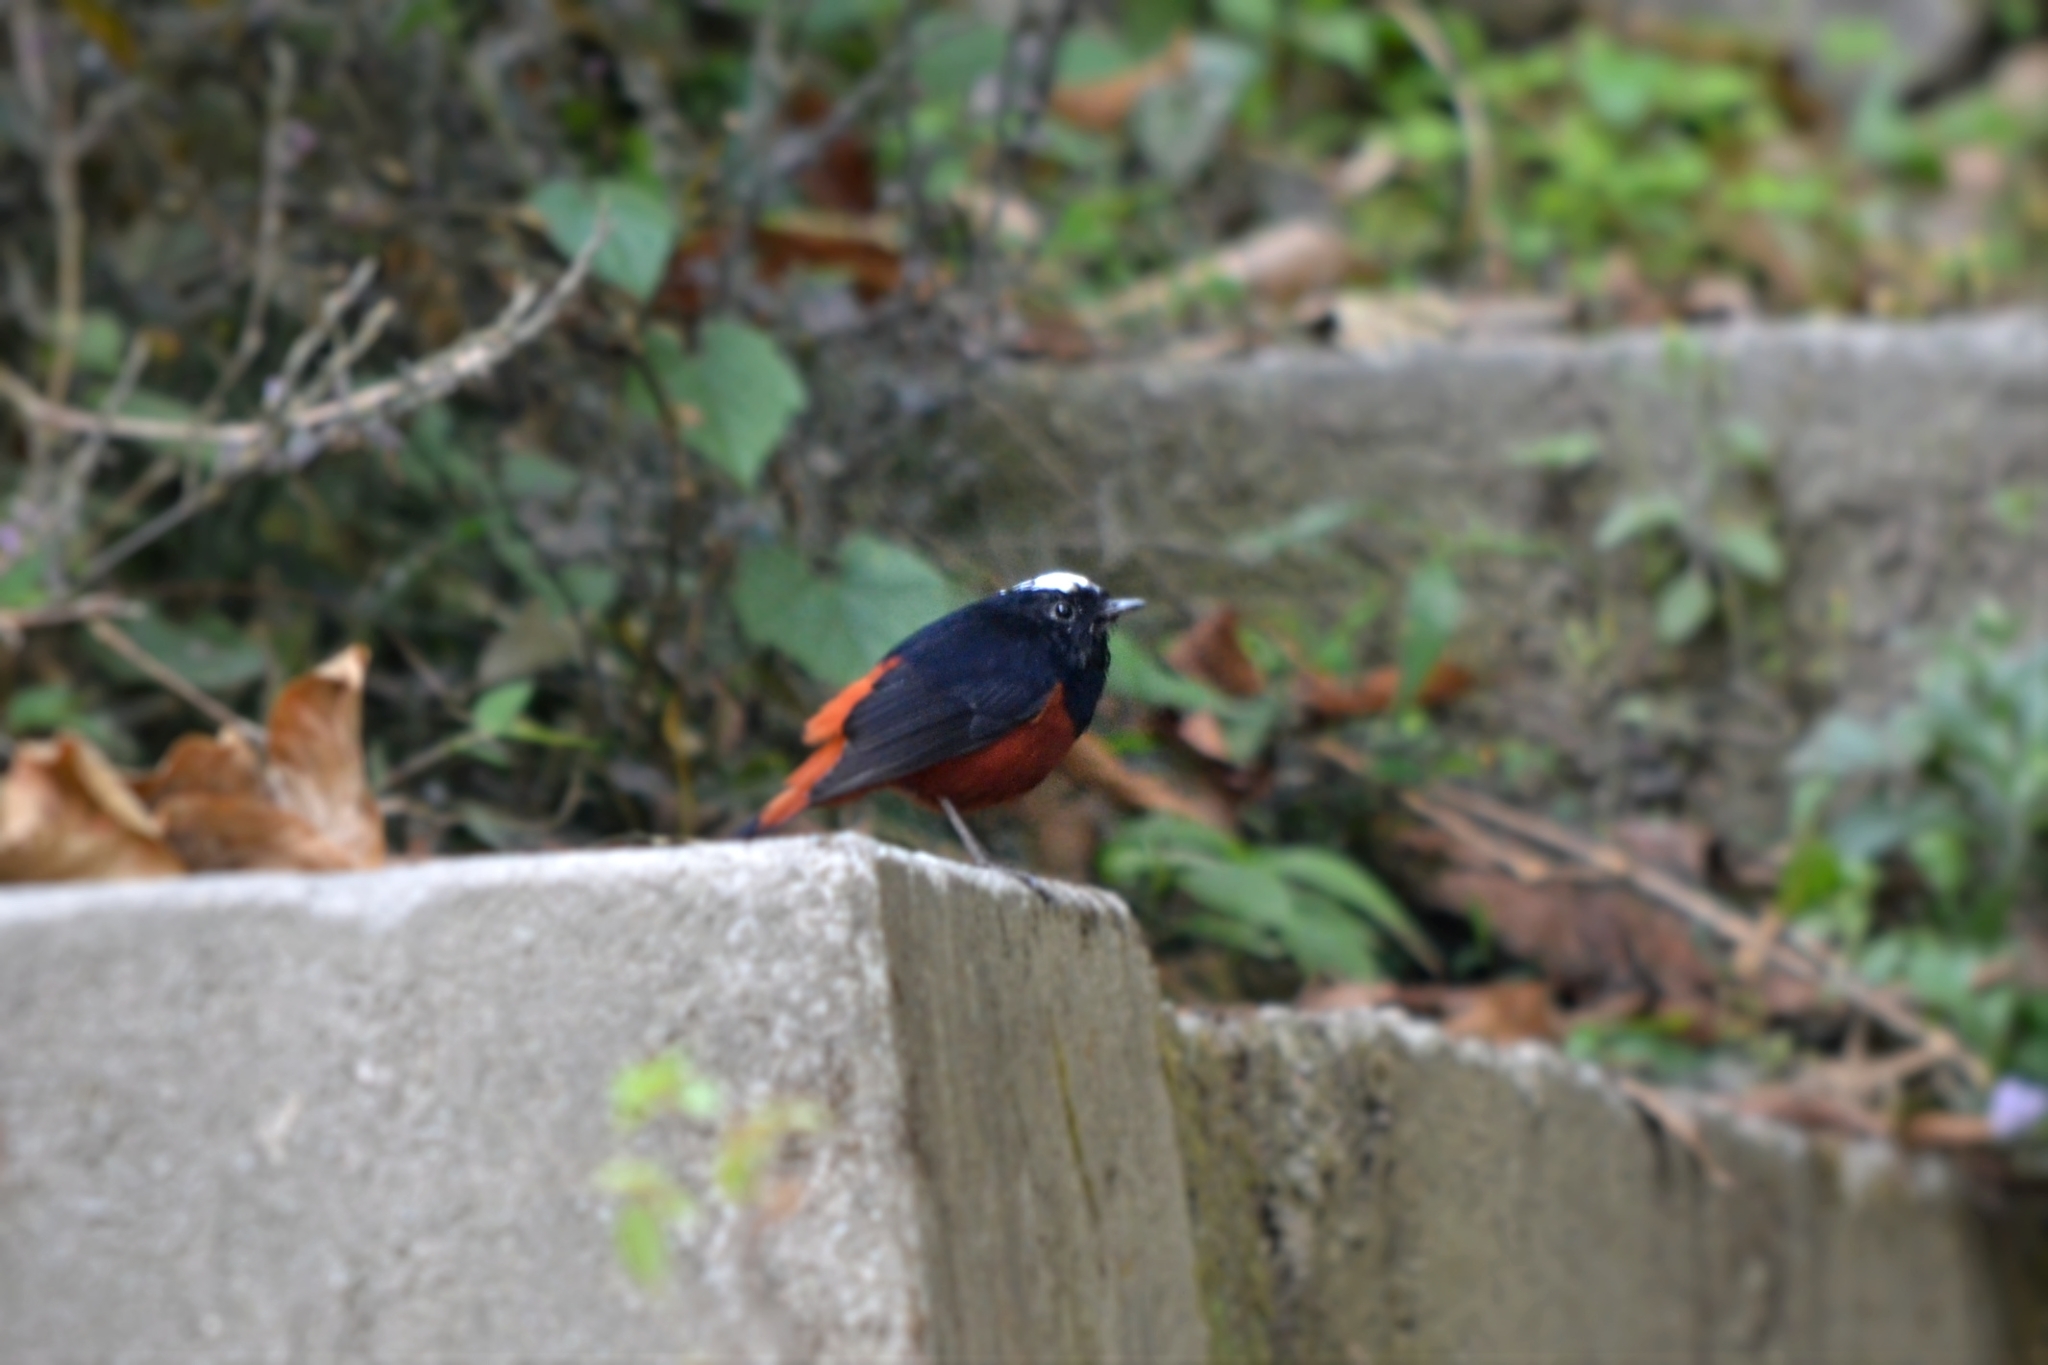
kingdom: Animalia
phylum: Chordata
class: Aves
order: Passeriformes
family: Muscicapidae
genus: Chaimarrornis
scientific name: Chaimarrornis leucocephalus
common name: White-capped redstart
